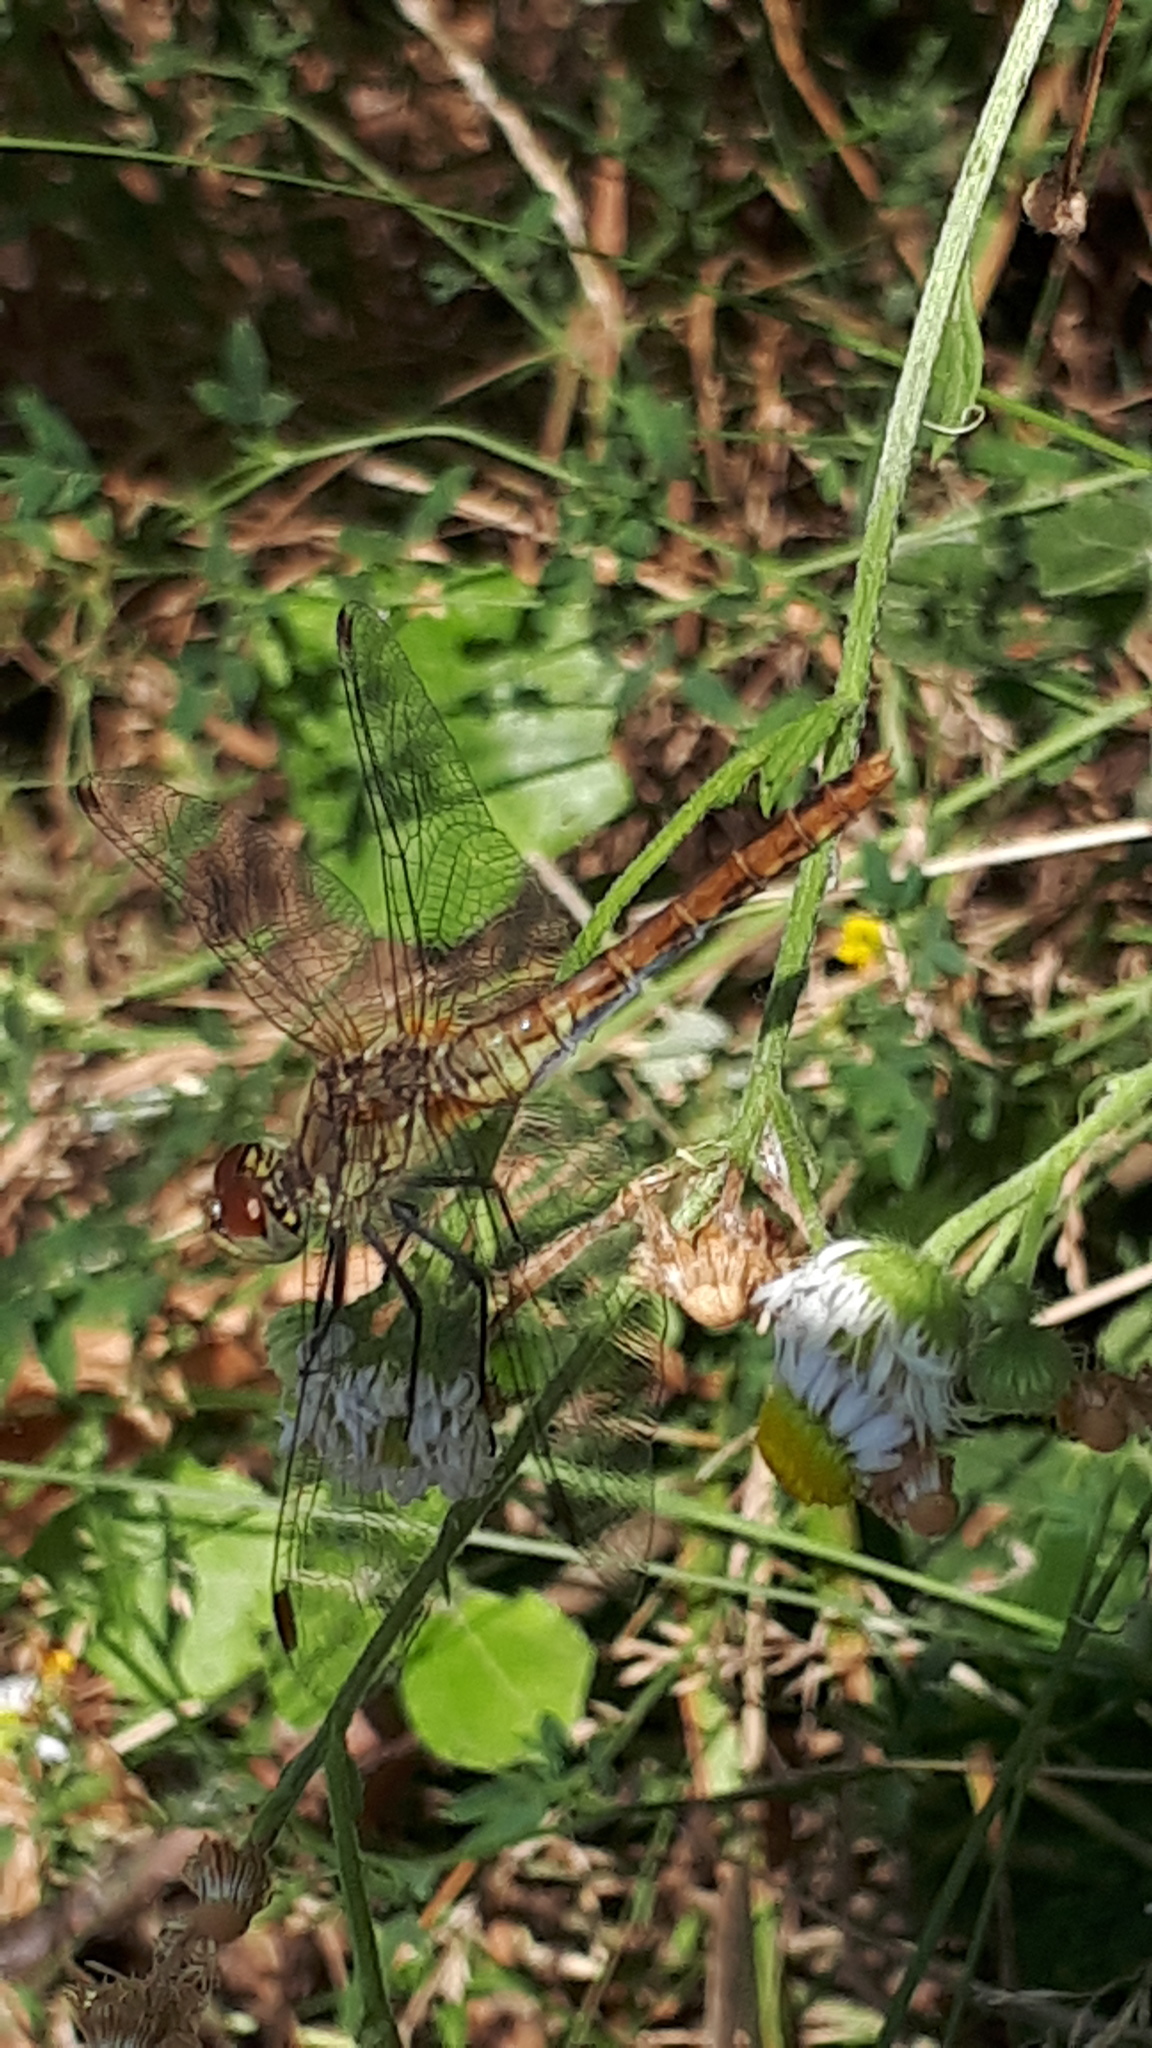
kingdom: Animalia
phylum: Arthropoda
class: Insecta
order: Odonata
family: Libellulidae
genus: Sympetrum
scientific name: Sympetrum sanguineum
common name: Ruddy darter
